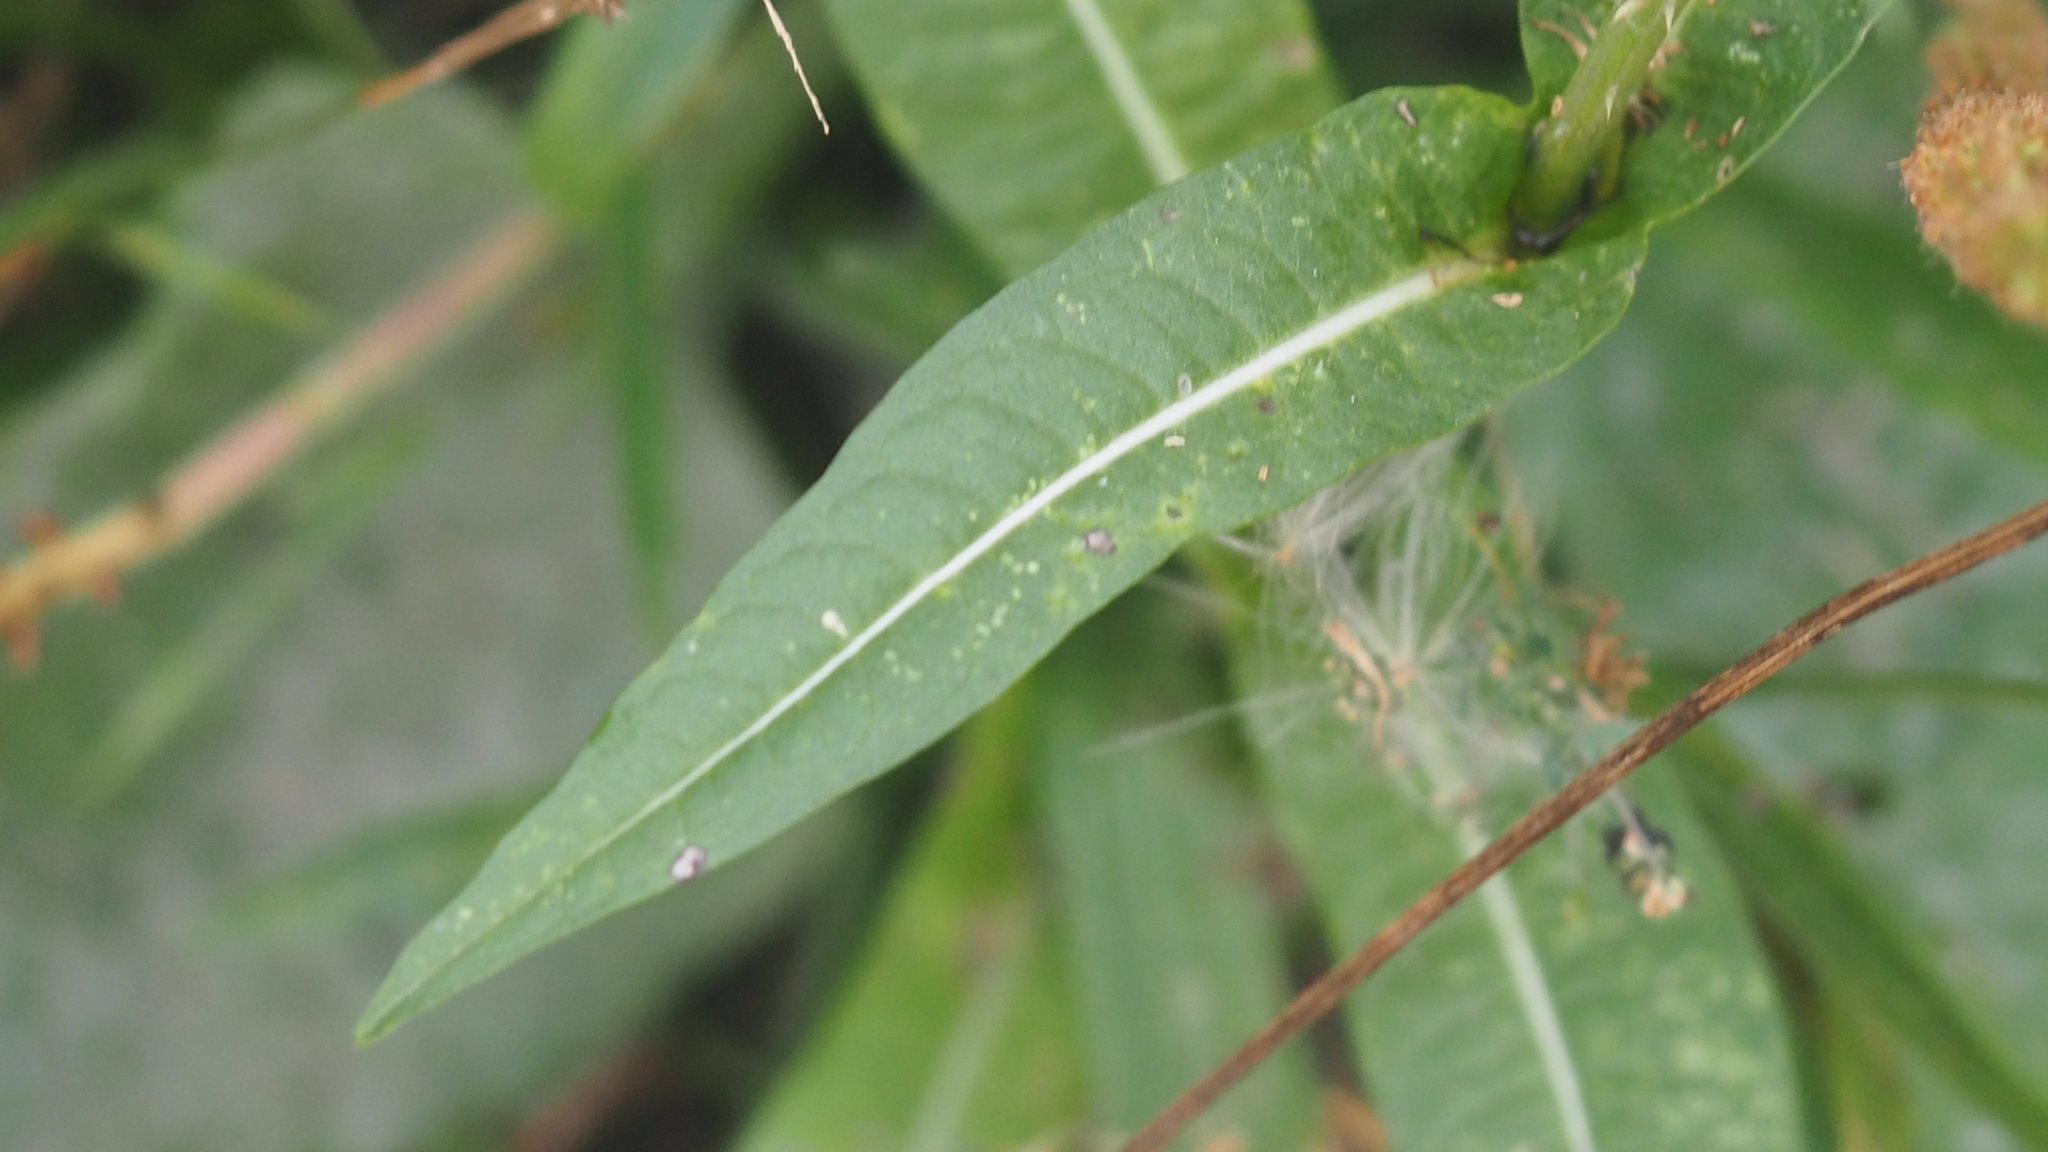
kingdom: Plantae
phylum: Tracheophyta
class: Magnoliopsida
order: Dipsacales
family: Caprifoliaceae
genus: Dipsacus
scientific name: Dipsacus fullonum
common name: Teasel
